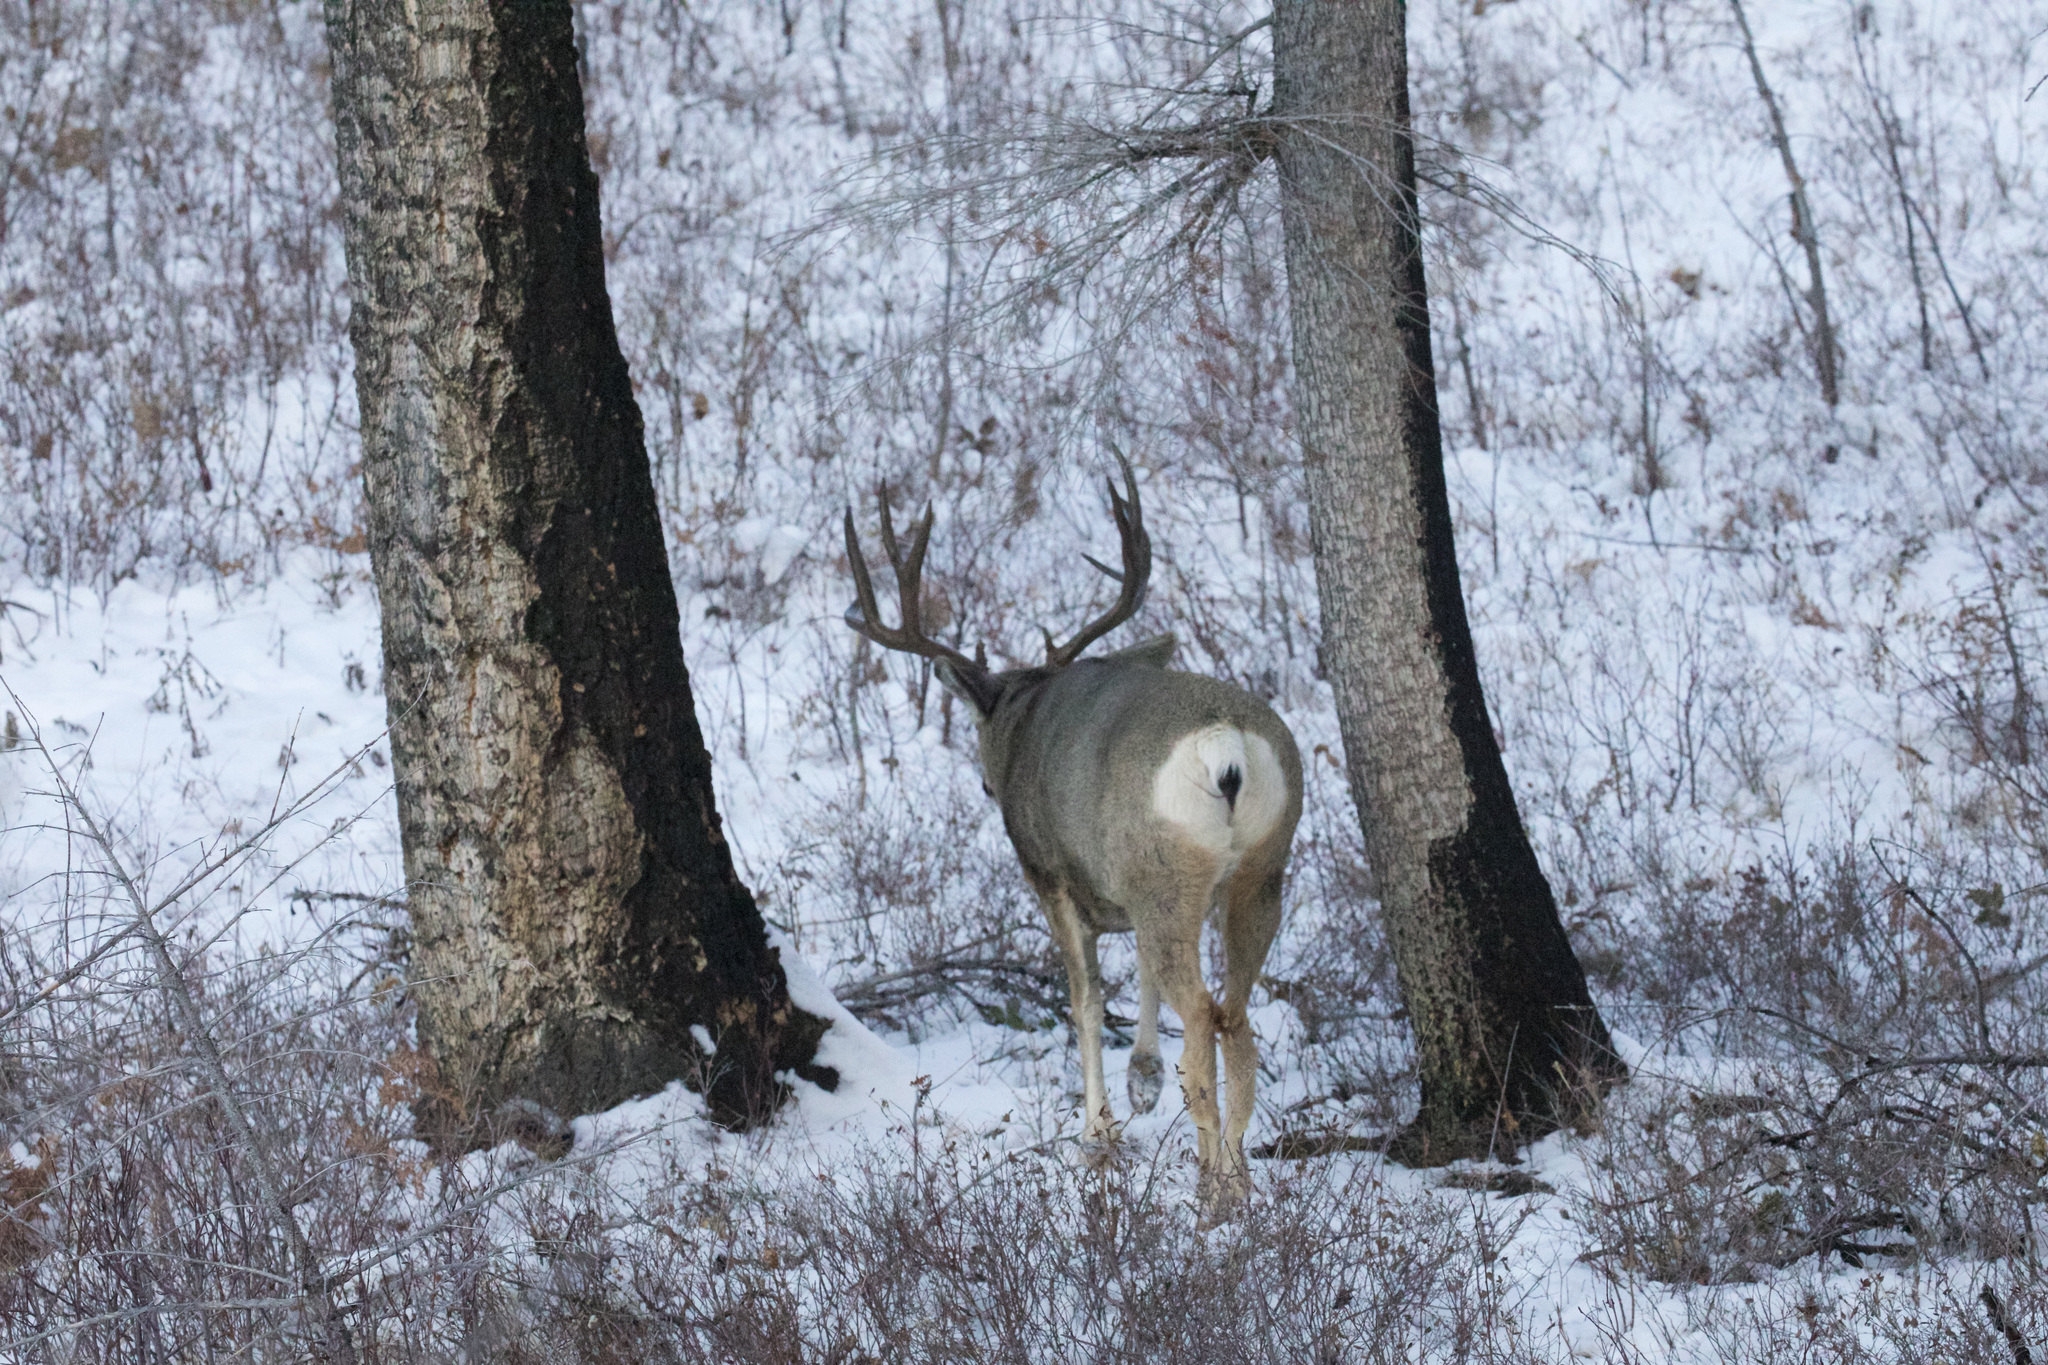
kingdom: Animalia
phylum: Chordata
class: Mammalia
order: Artiodactyla
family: Cervidae
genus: Odocoileus
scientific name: Odocoileus hemionus
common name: Mule deer
